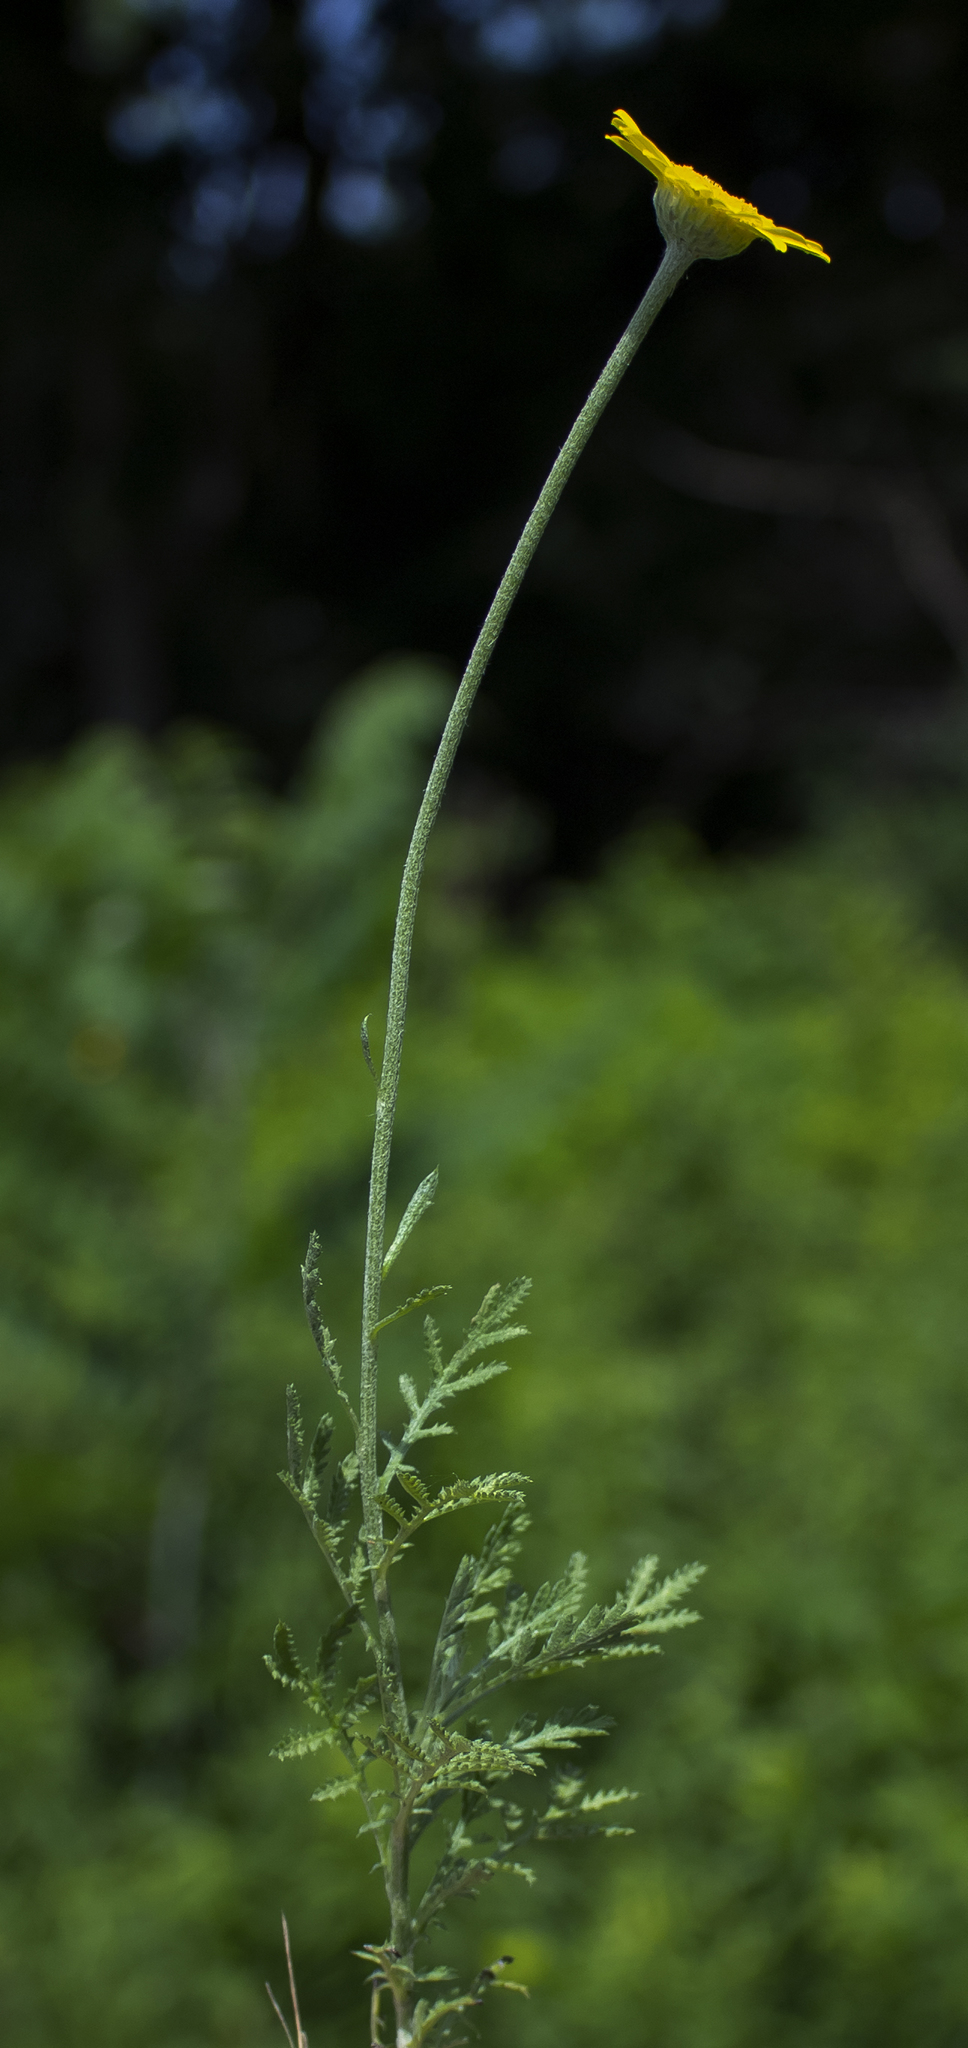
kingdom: Plantae
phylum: Tracheophyta
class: Magnoliopsida
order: Asterales
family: Asteraceae
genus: Cota
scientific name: Cota tinctoria
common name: Golden chamomile
